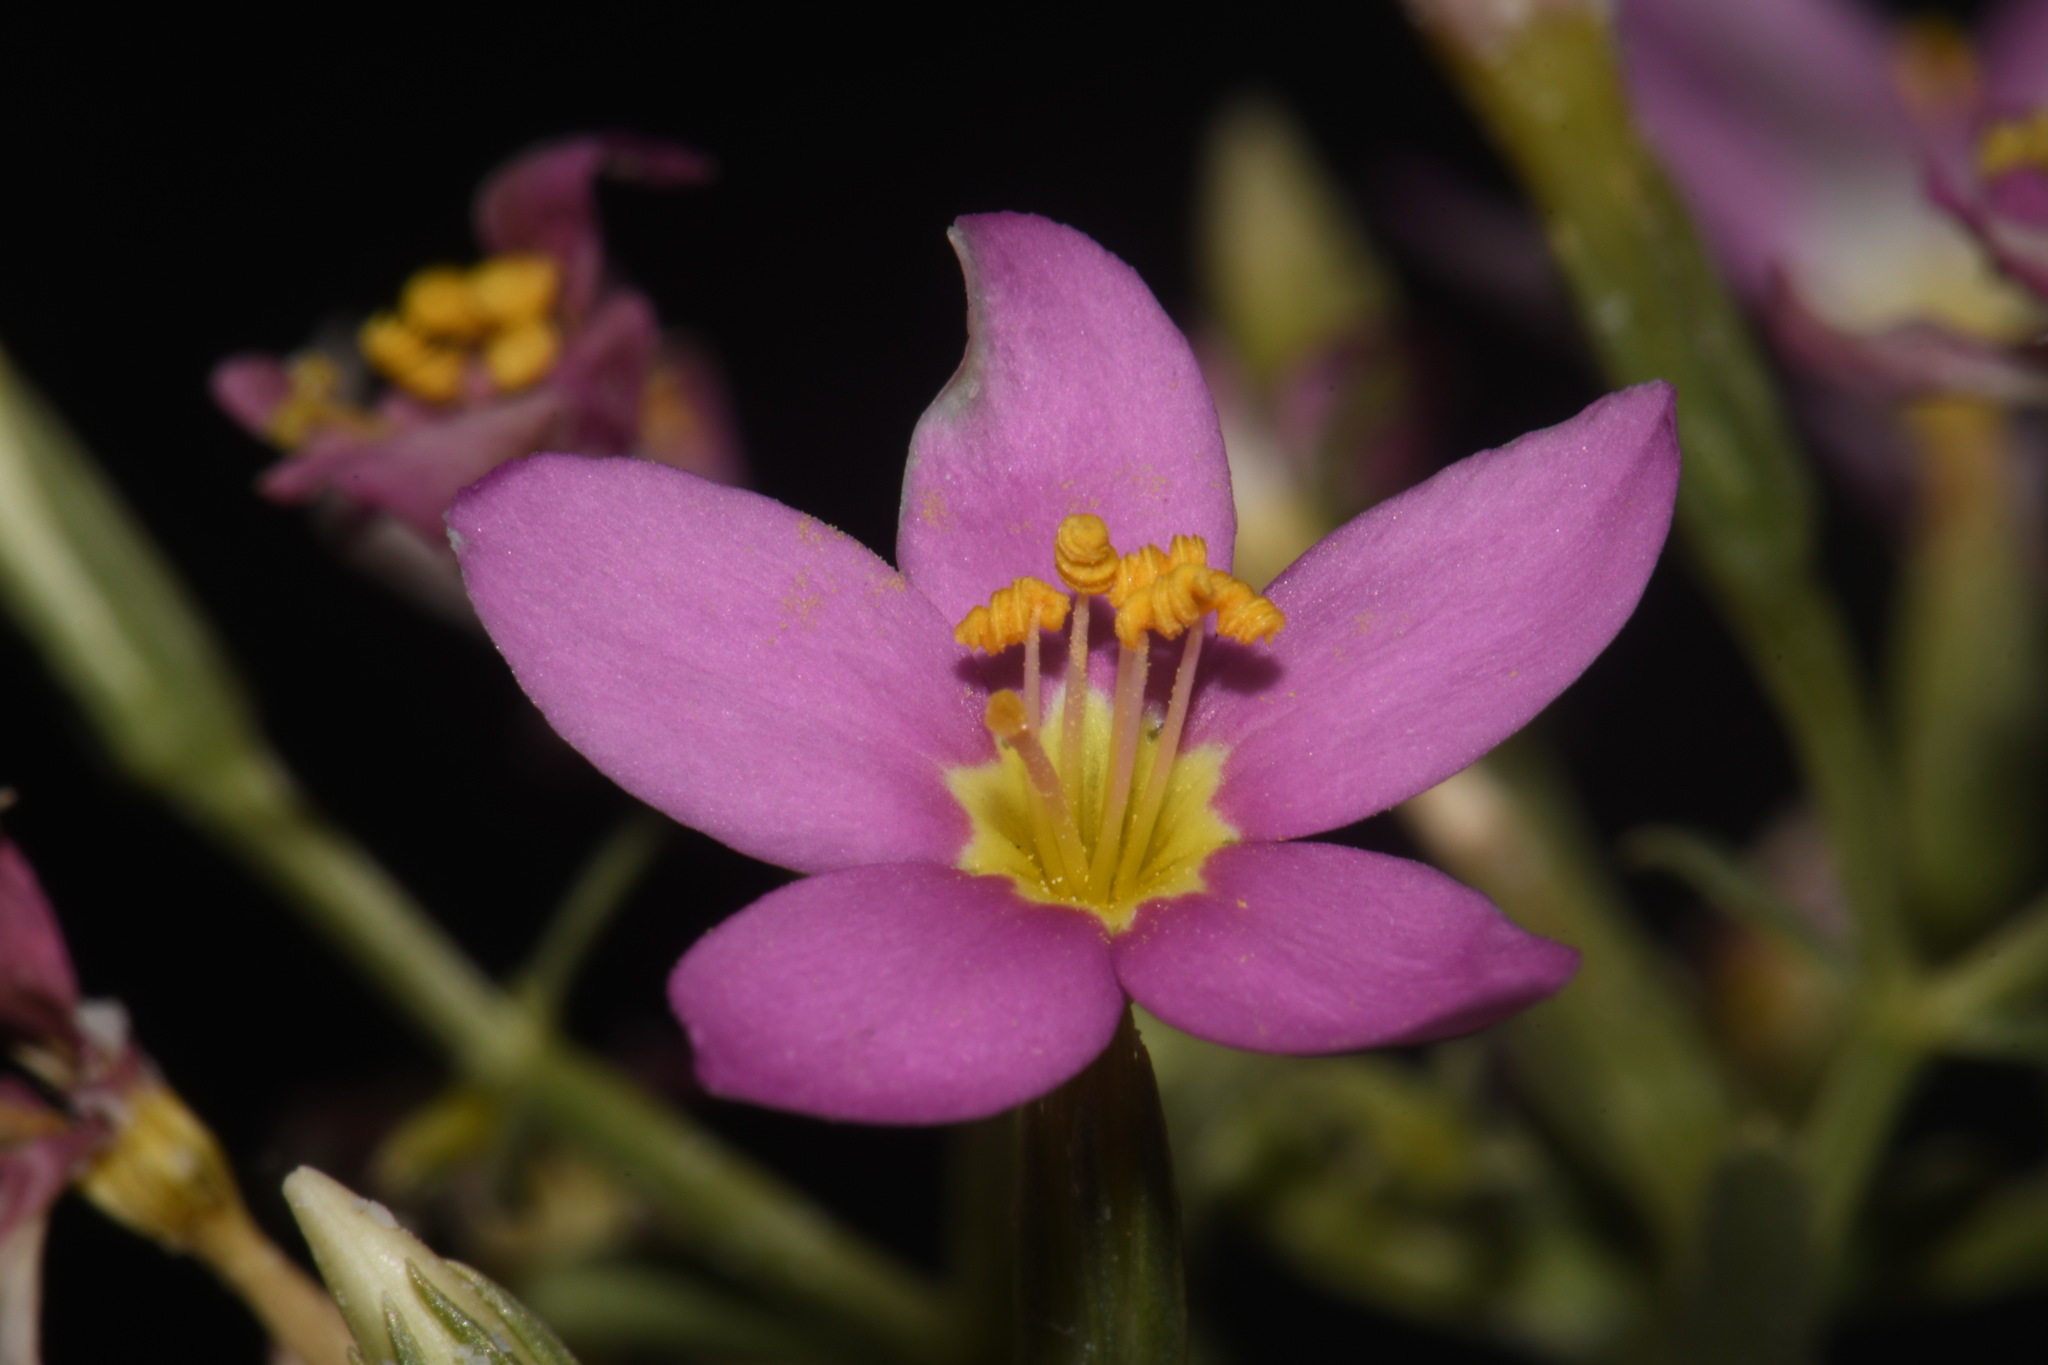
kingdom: Plantae
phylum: Tracheophyta
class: Magnoliopsida
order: Gentianales
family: Gentianaceae
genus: Zeltnera
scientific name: Zeltnera maryanniana
